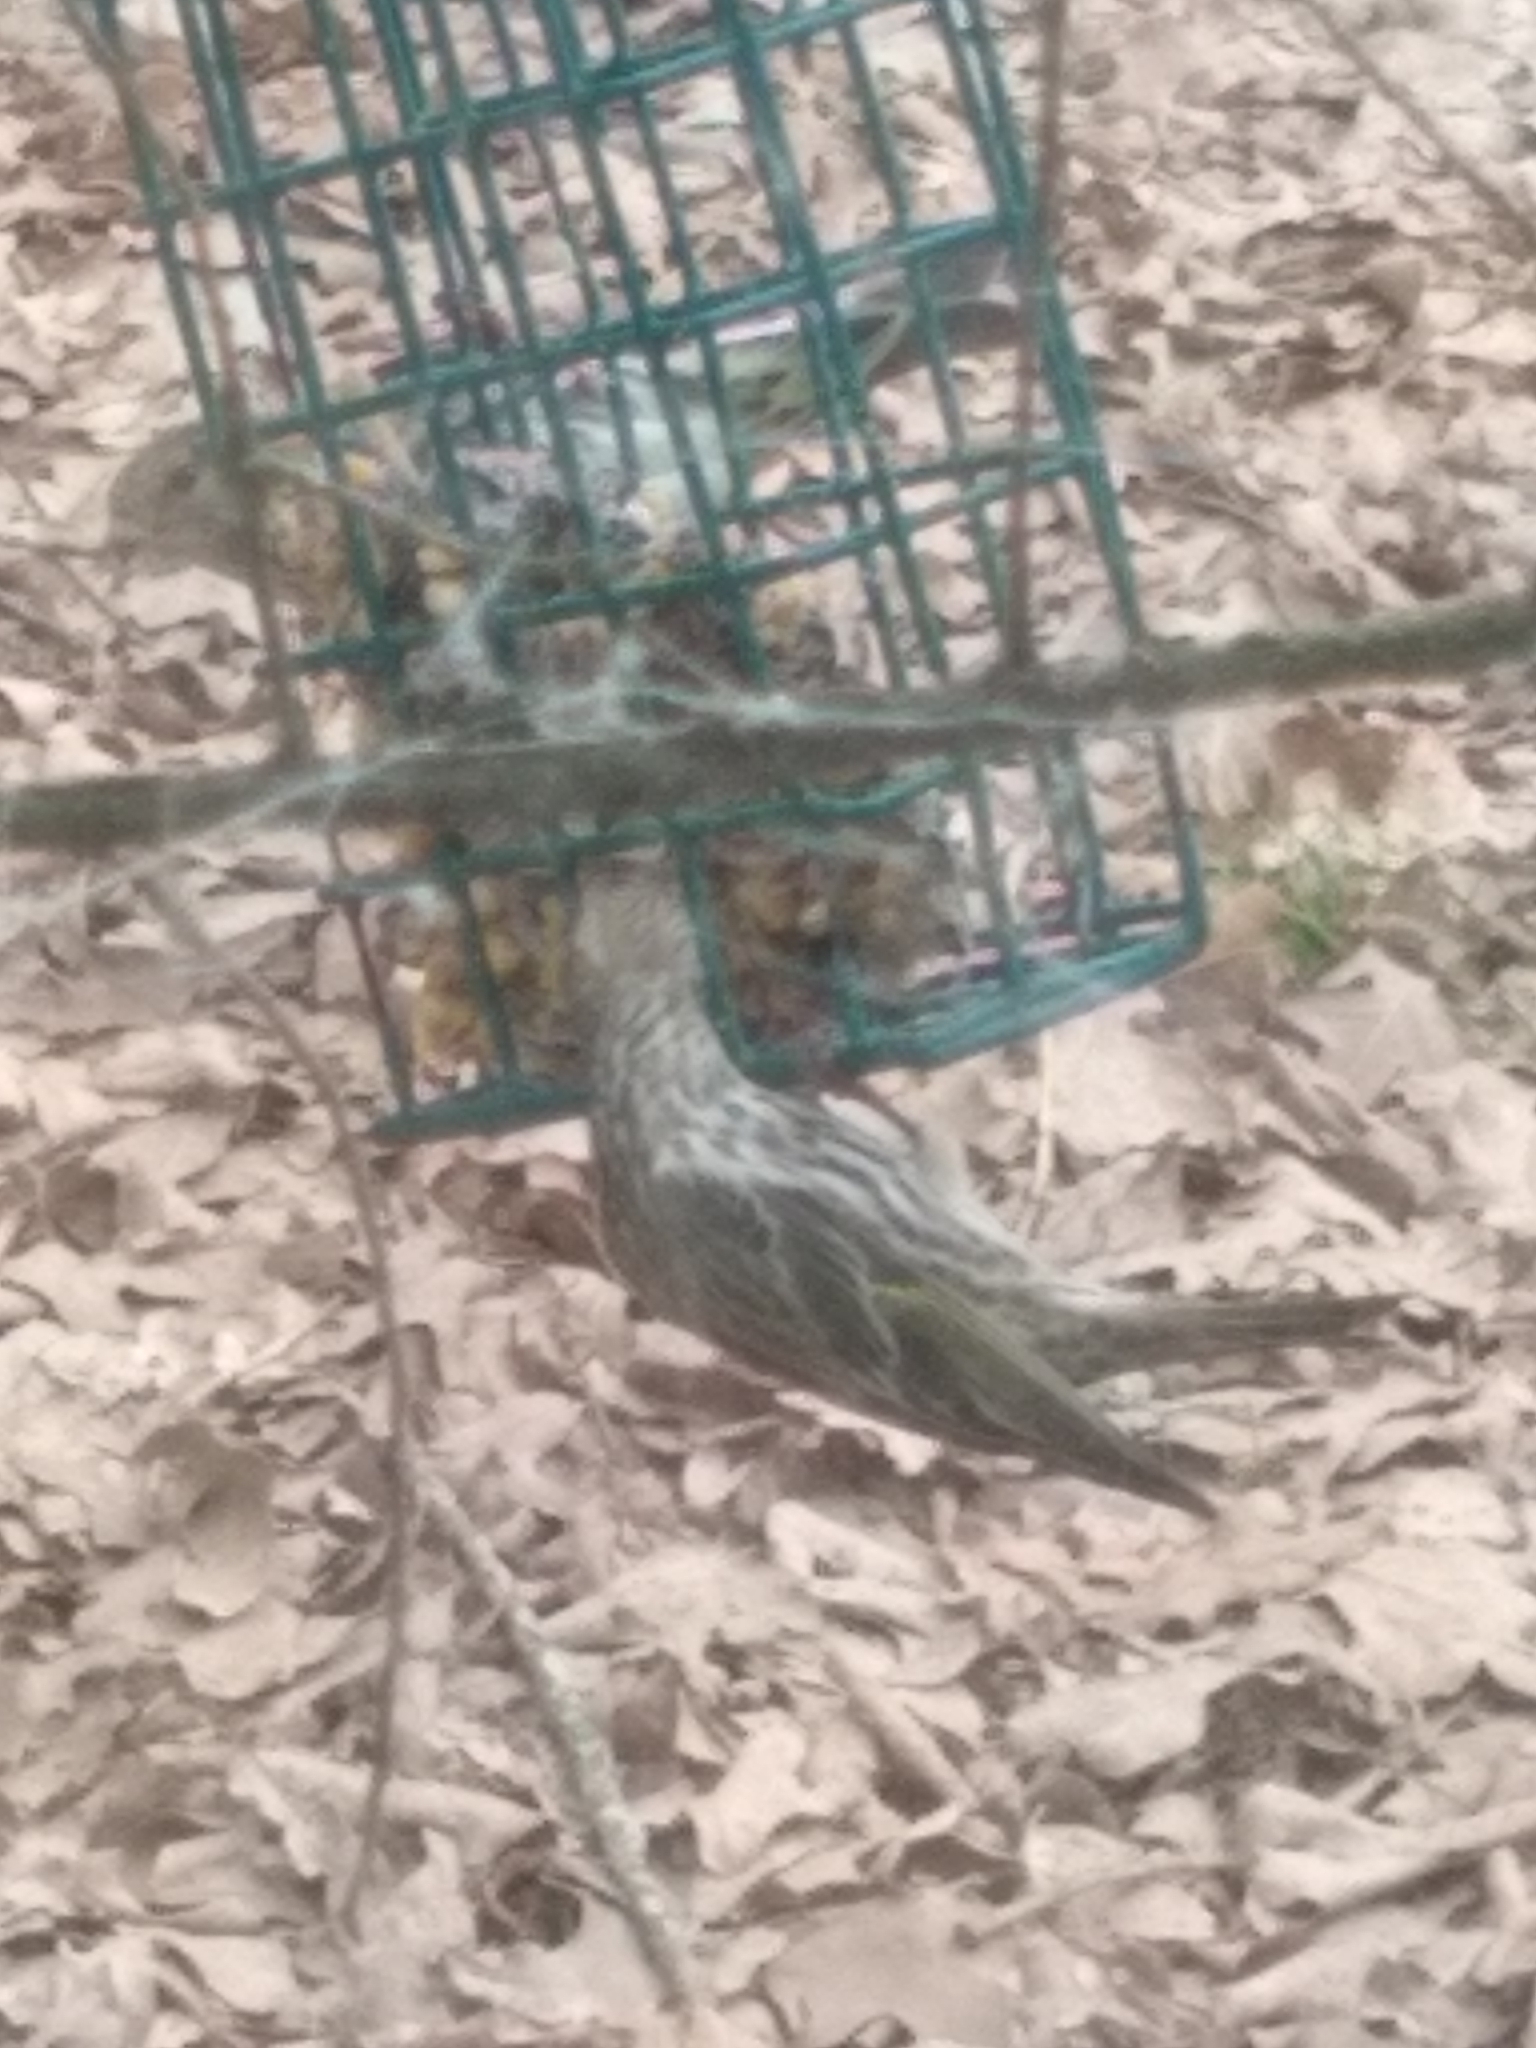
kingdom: Animalia
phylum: Chordata
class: Aves
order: Passeriformes
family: Fringillidae
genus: Spinus
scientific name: Spinus pinus
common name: Pine siskin
